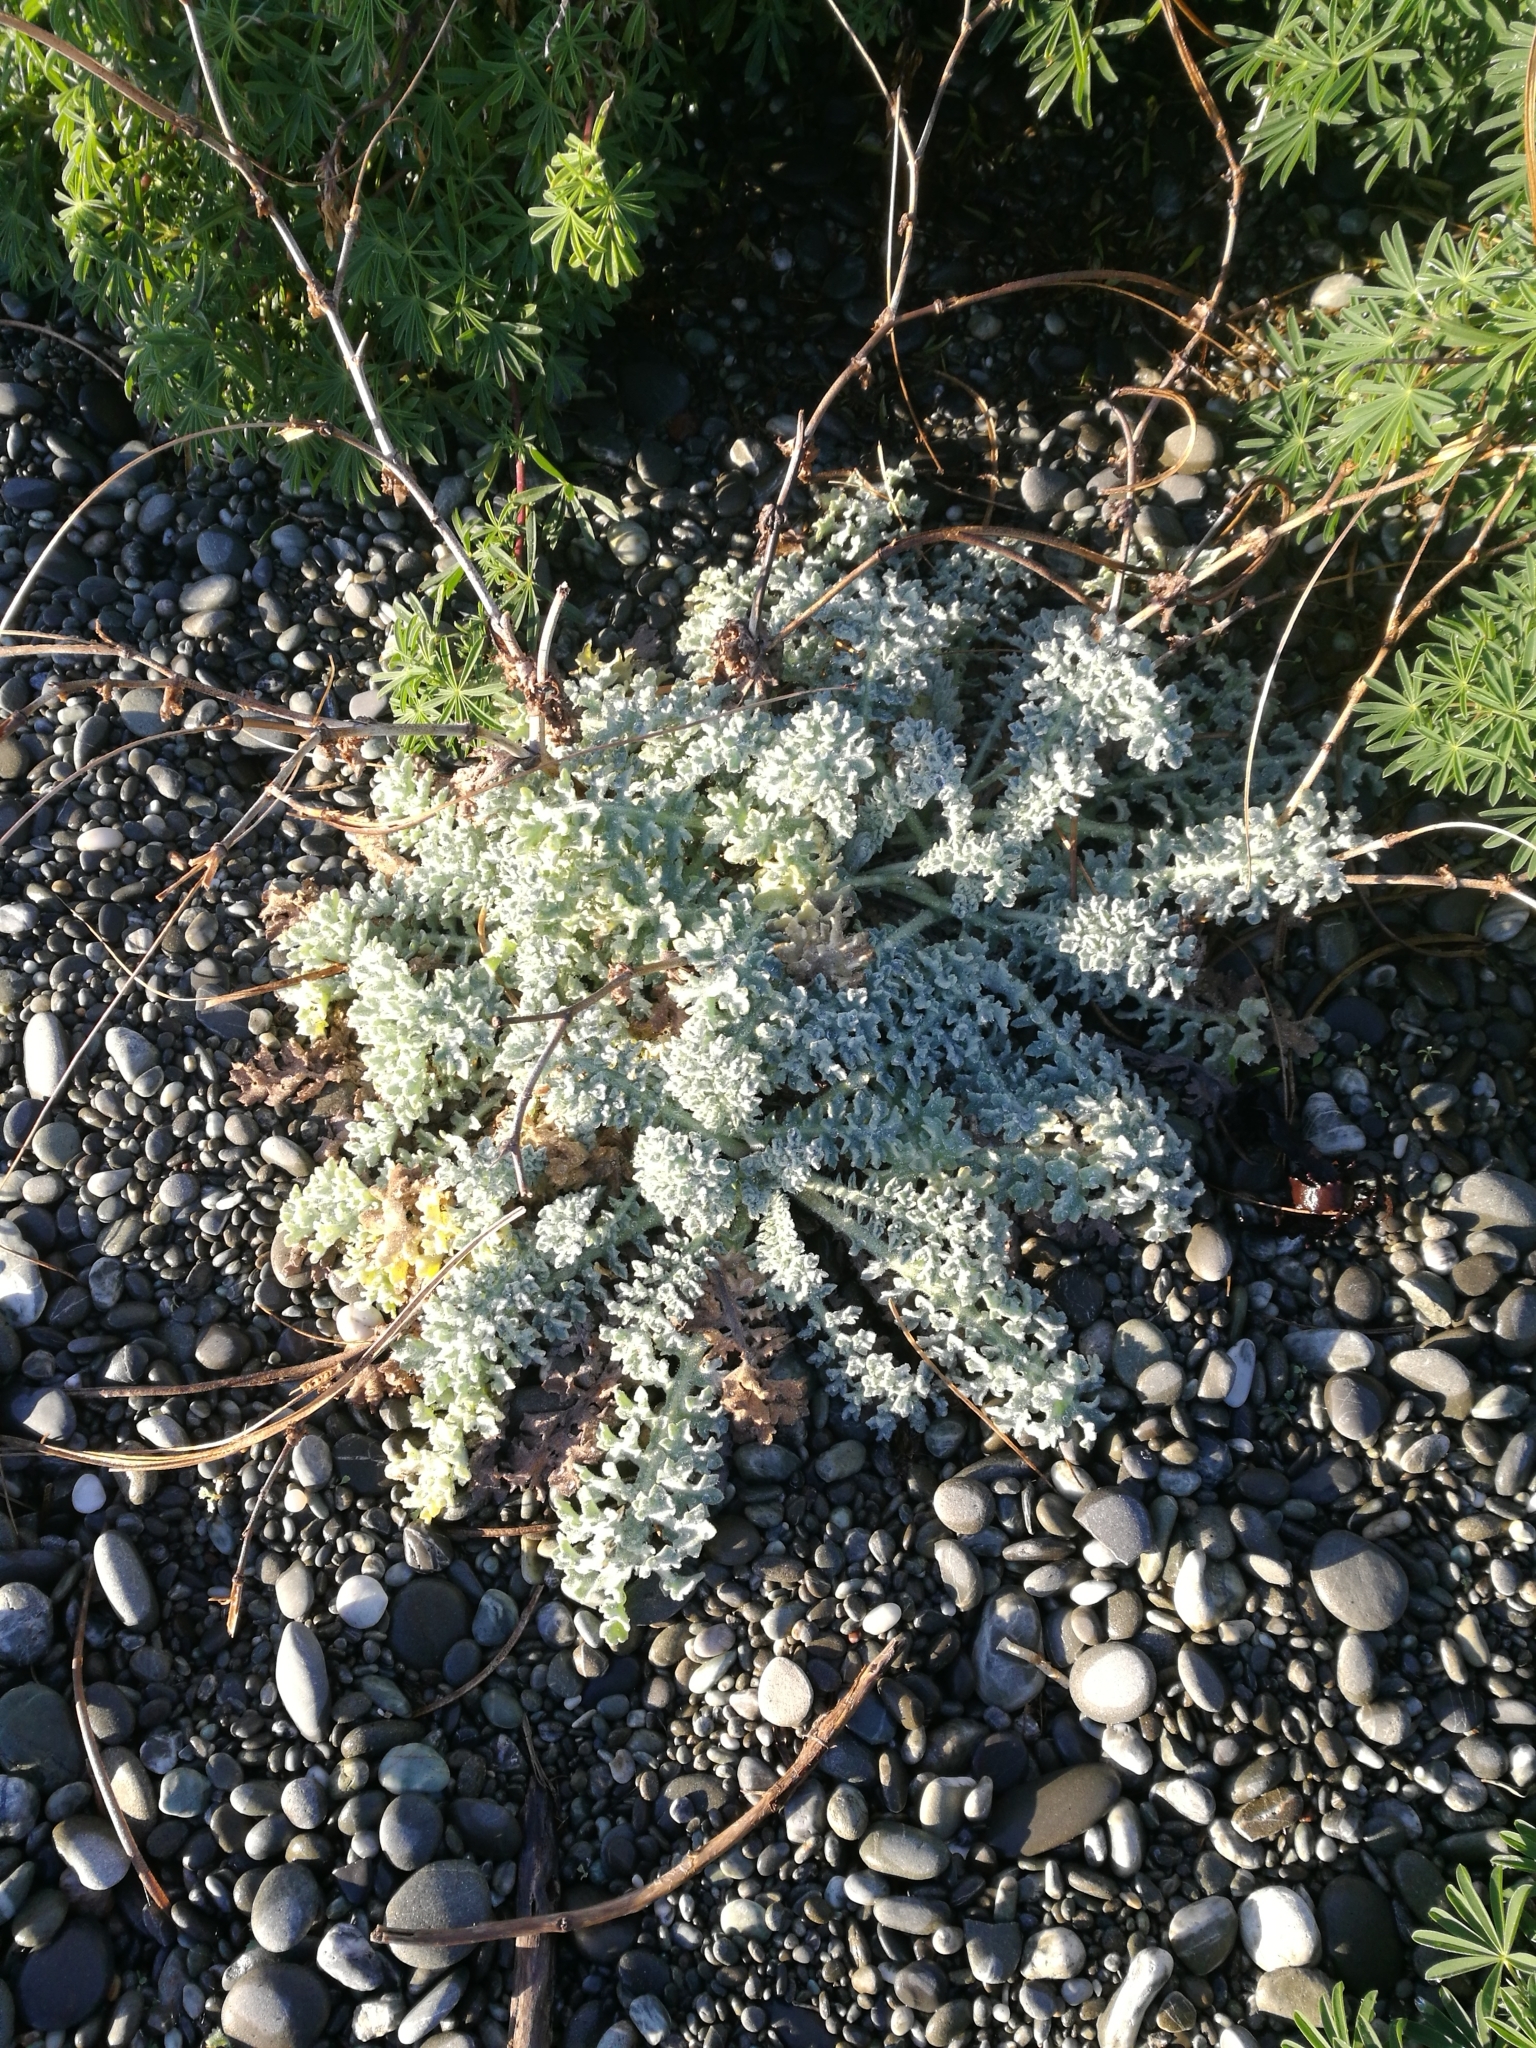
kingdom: Plantae
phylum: Tracheophyta
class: Magnoliopsida
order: Ranunculales
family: Papaveraceae
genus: Glaucium
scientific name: Glaucium flavum
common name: Yellow horned-poppy
